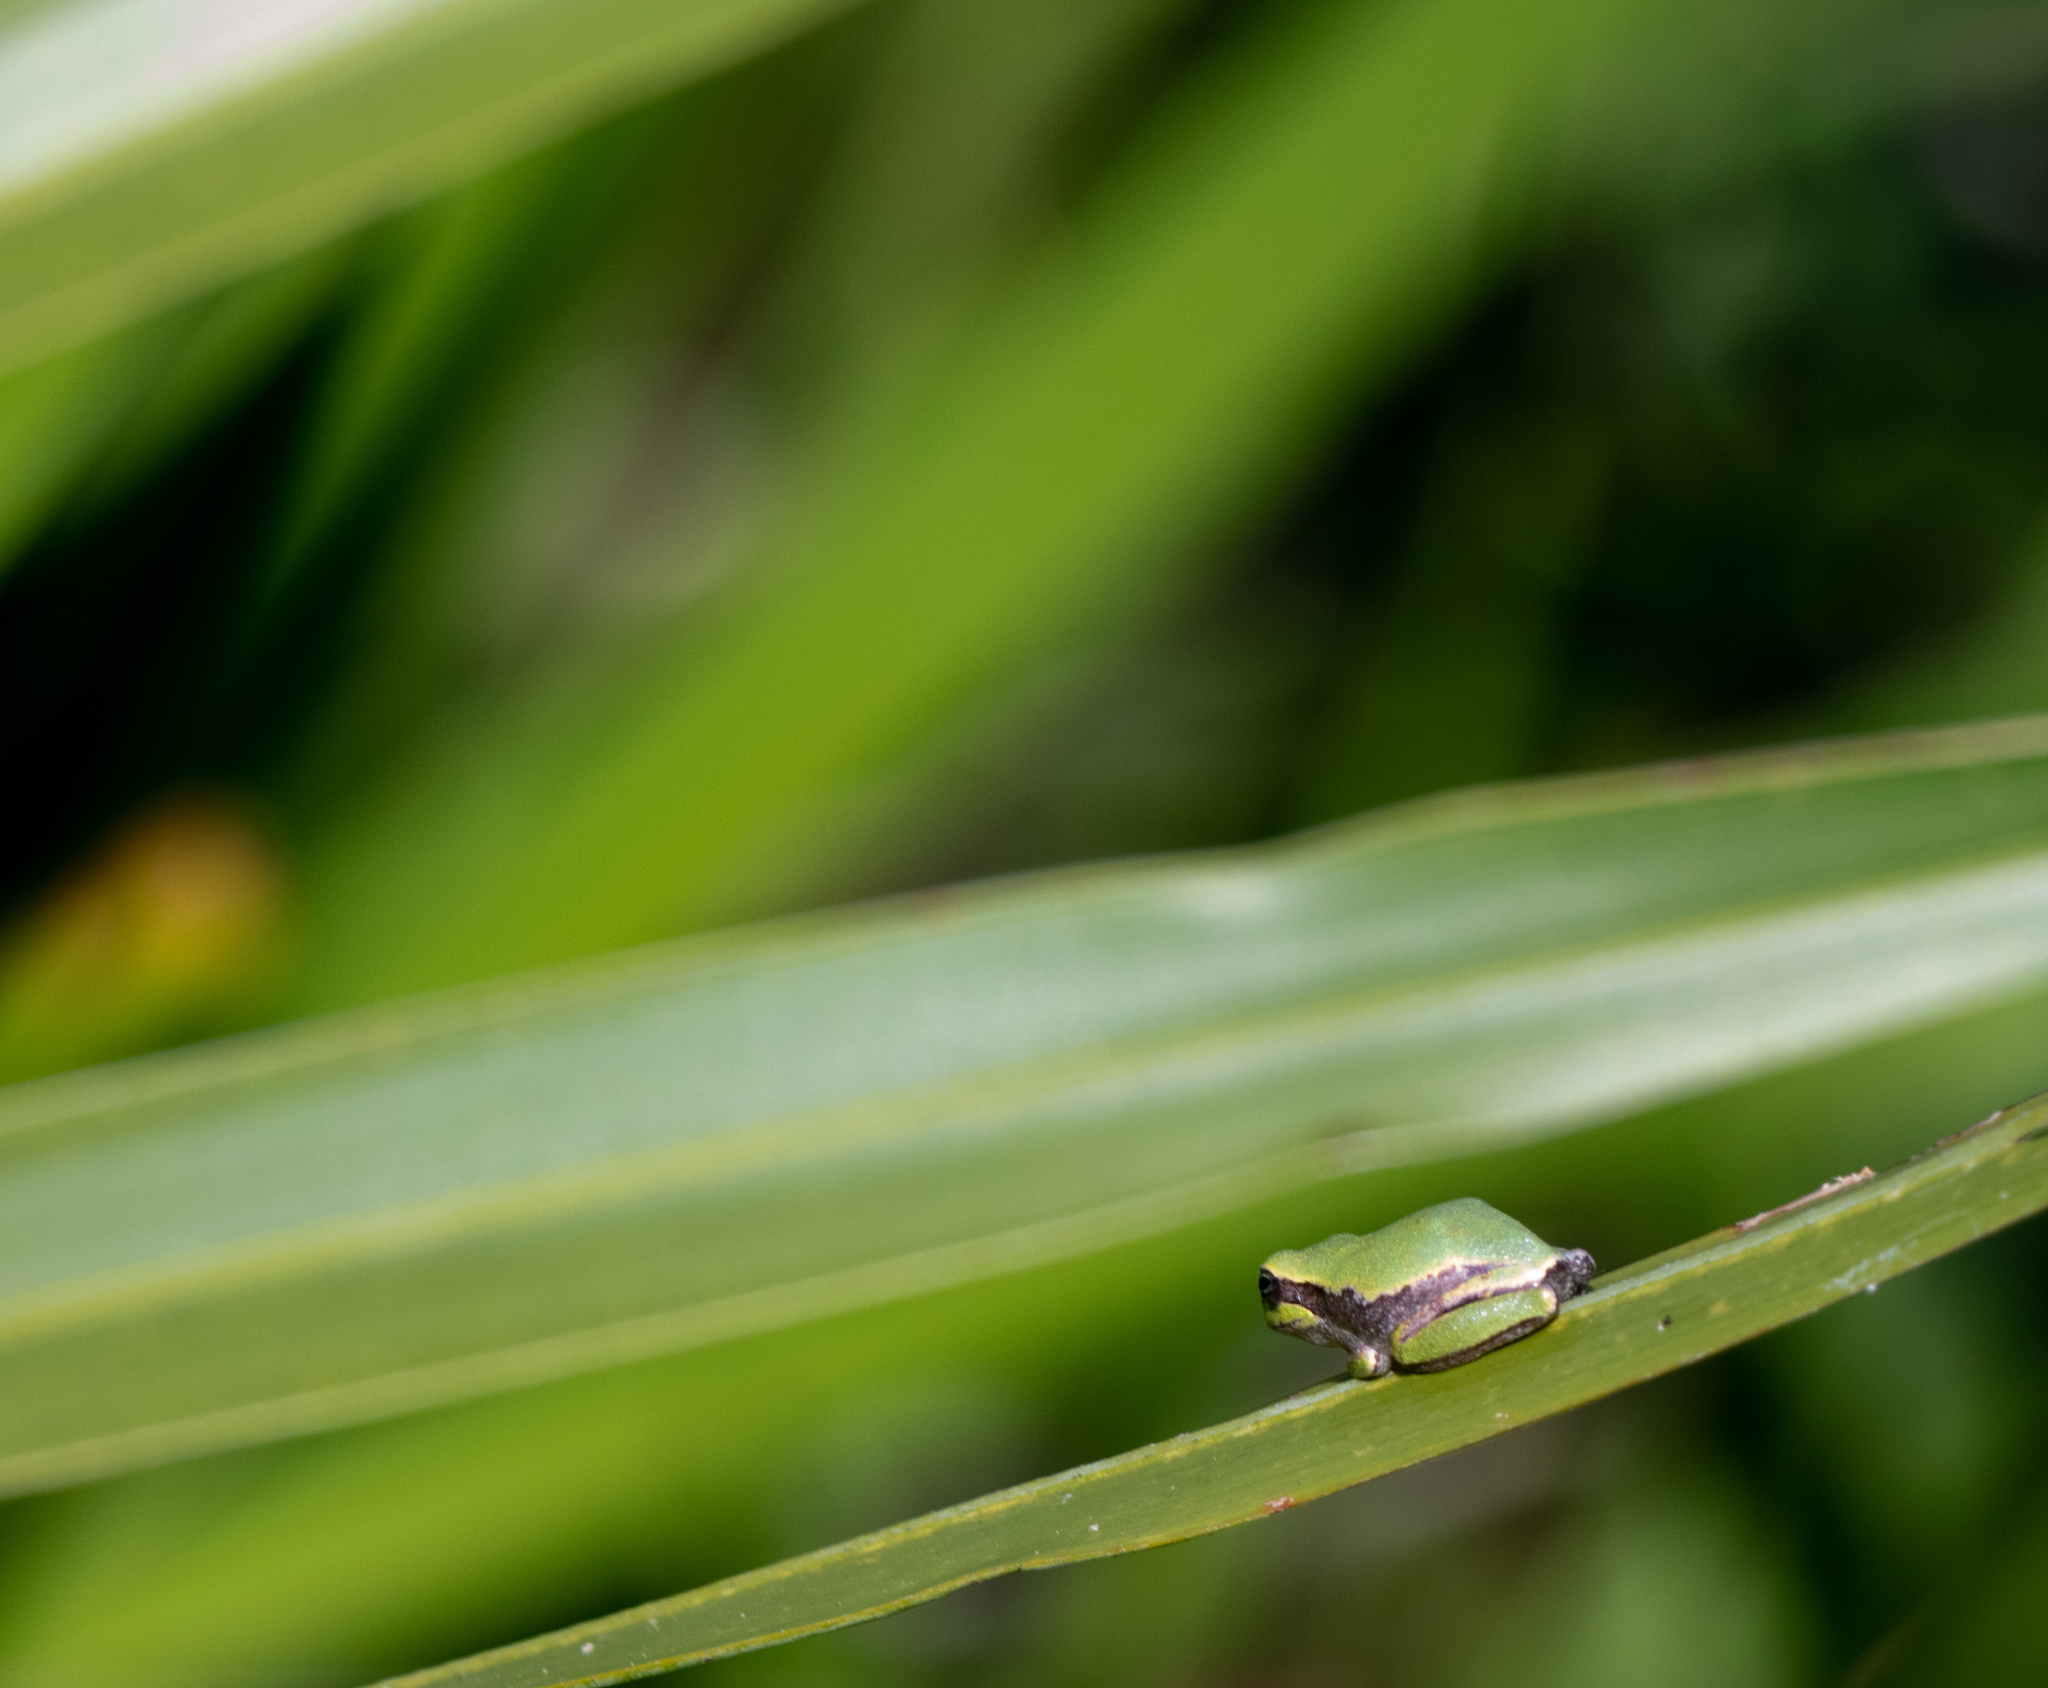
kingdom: Animalia
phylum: Chordata
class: Amphibia
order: Anura
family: Hylidae
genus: Hyla
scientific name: Hyla femoralis
